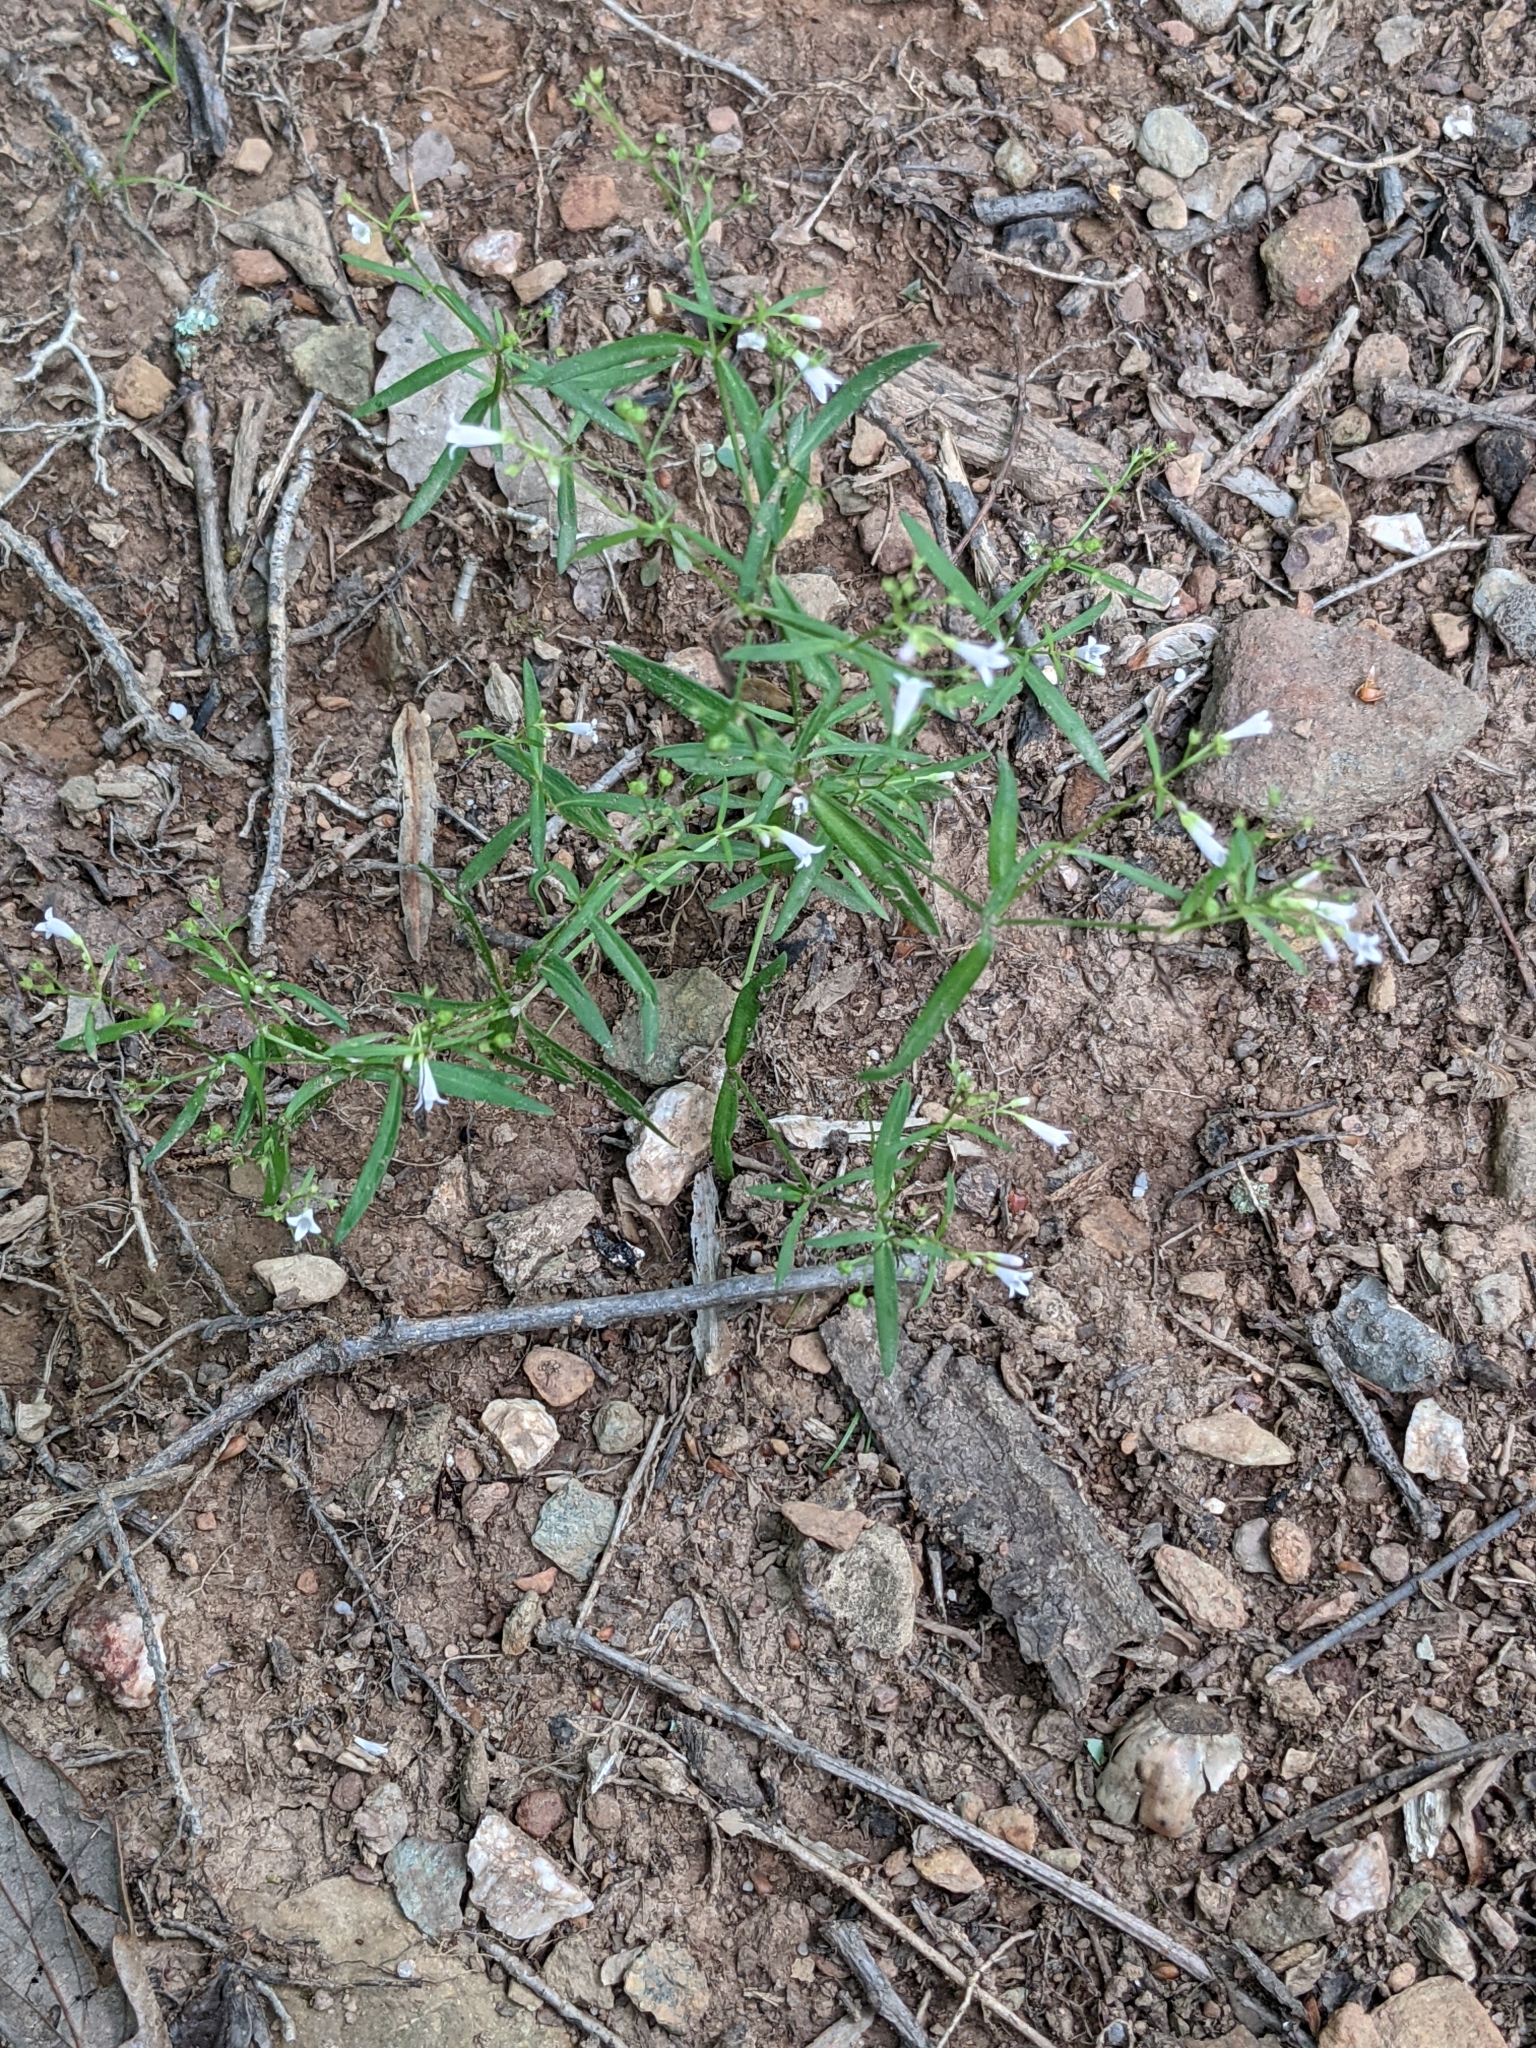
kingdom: Plantae
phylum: Tracheophyta
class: Magnoliopsida
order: Gentianales
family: Rubiaceae
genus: Houstonia
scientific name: Houstonia longifolia
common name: Long-leaved bluets
